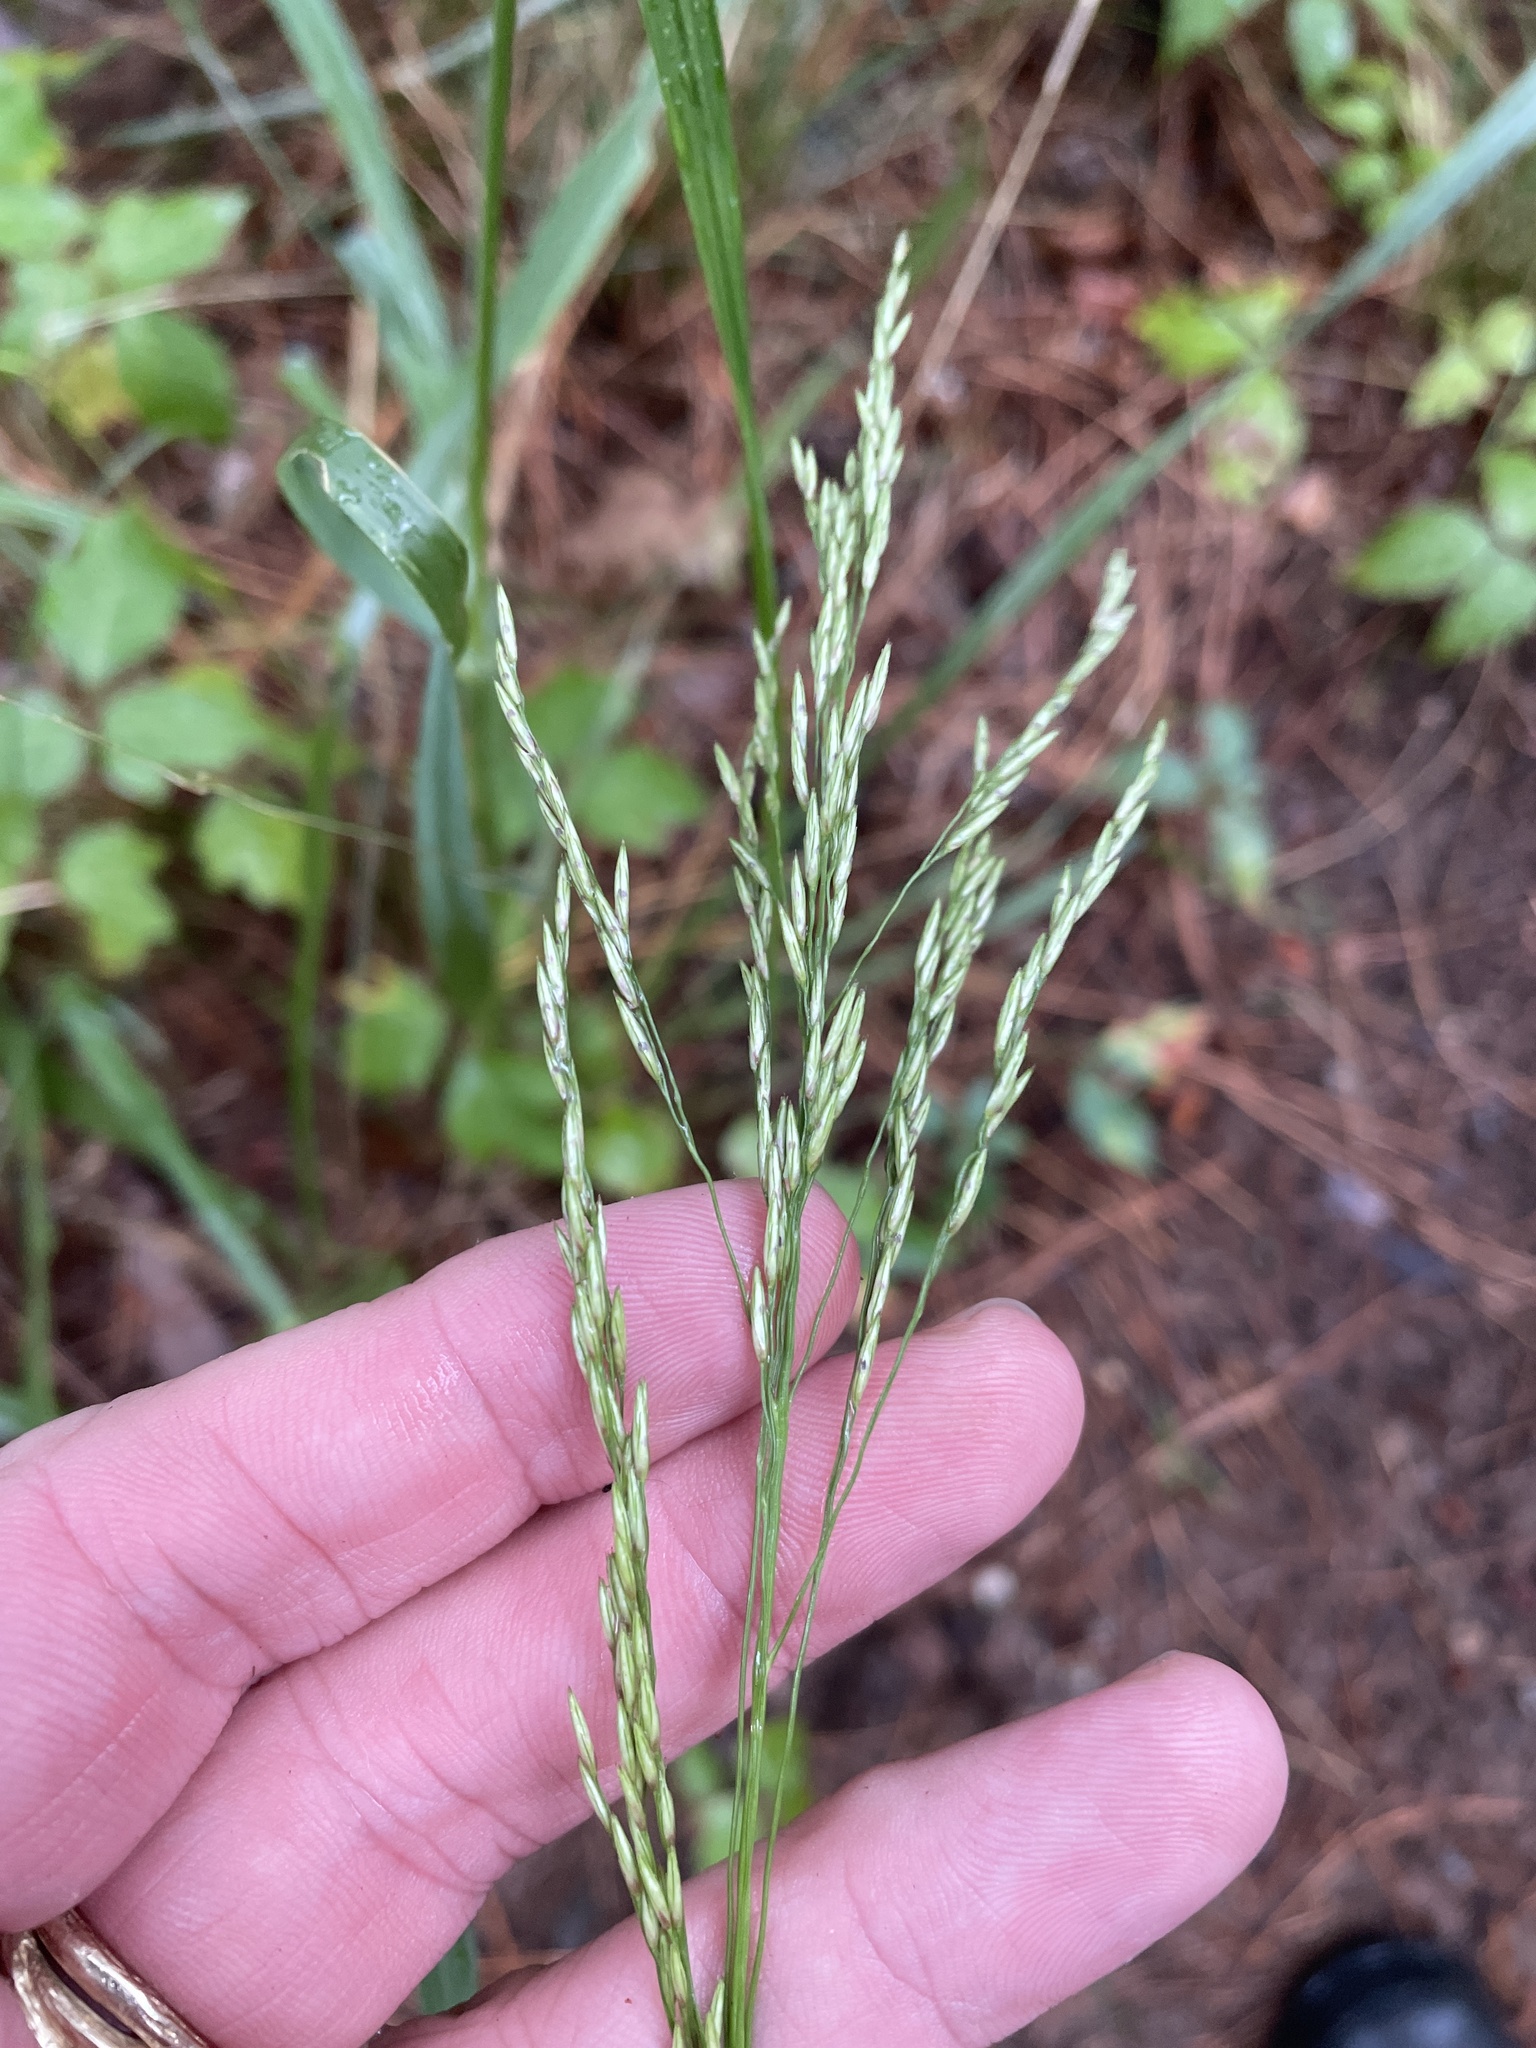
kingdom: Plantae
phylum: Tracheophyta
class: Liliopsida
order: Poales
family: Poaceae
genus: Tridens
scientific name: Tridens flavus
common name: Purpletop
